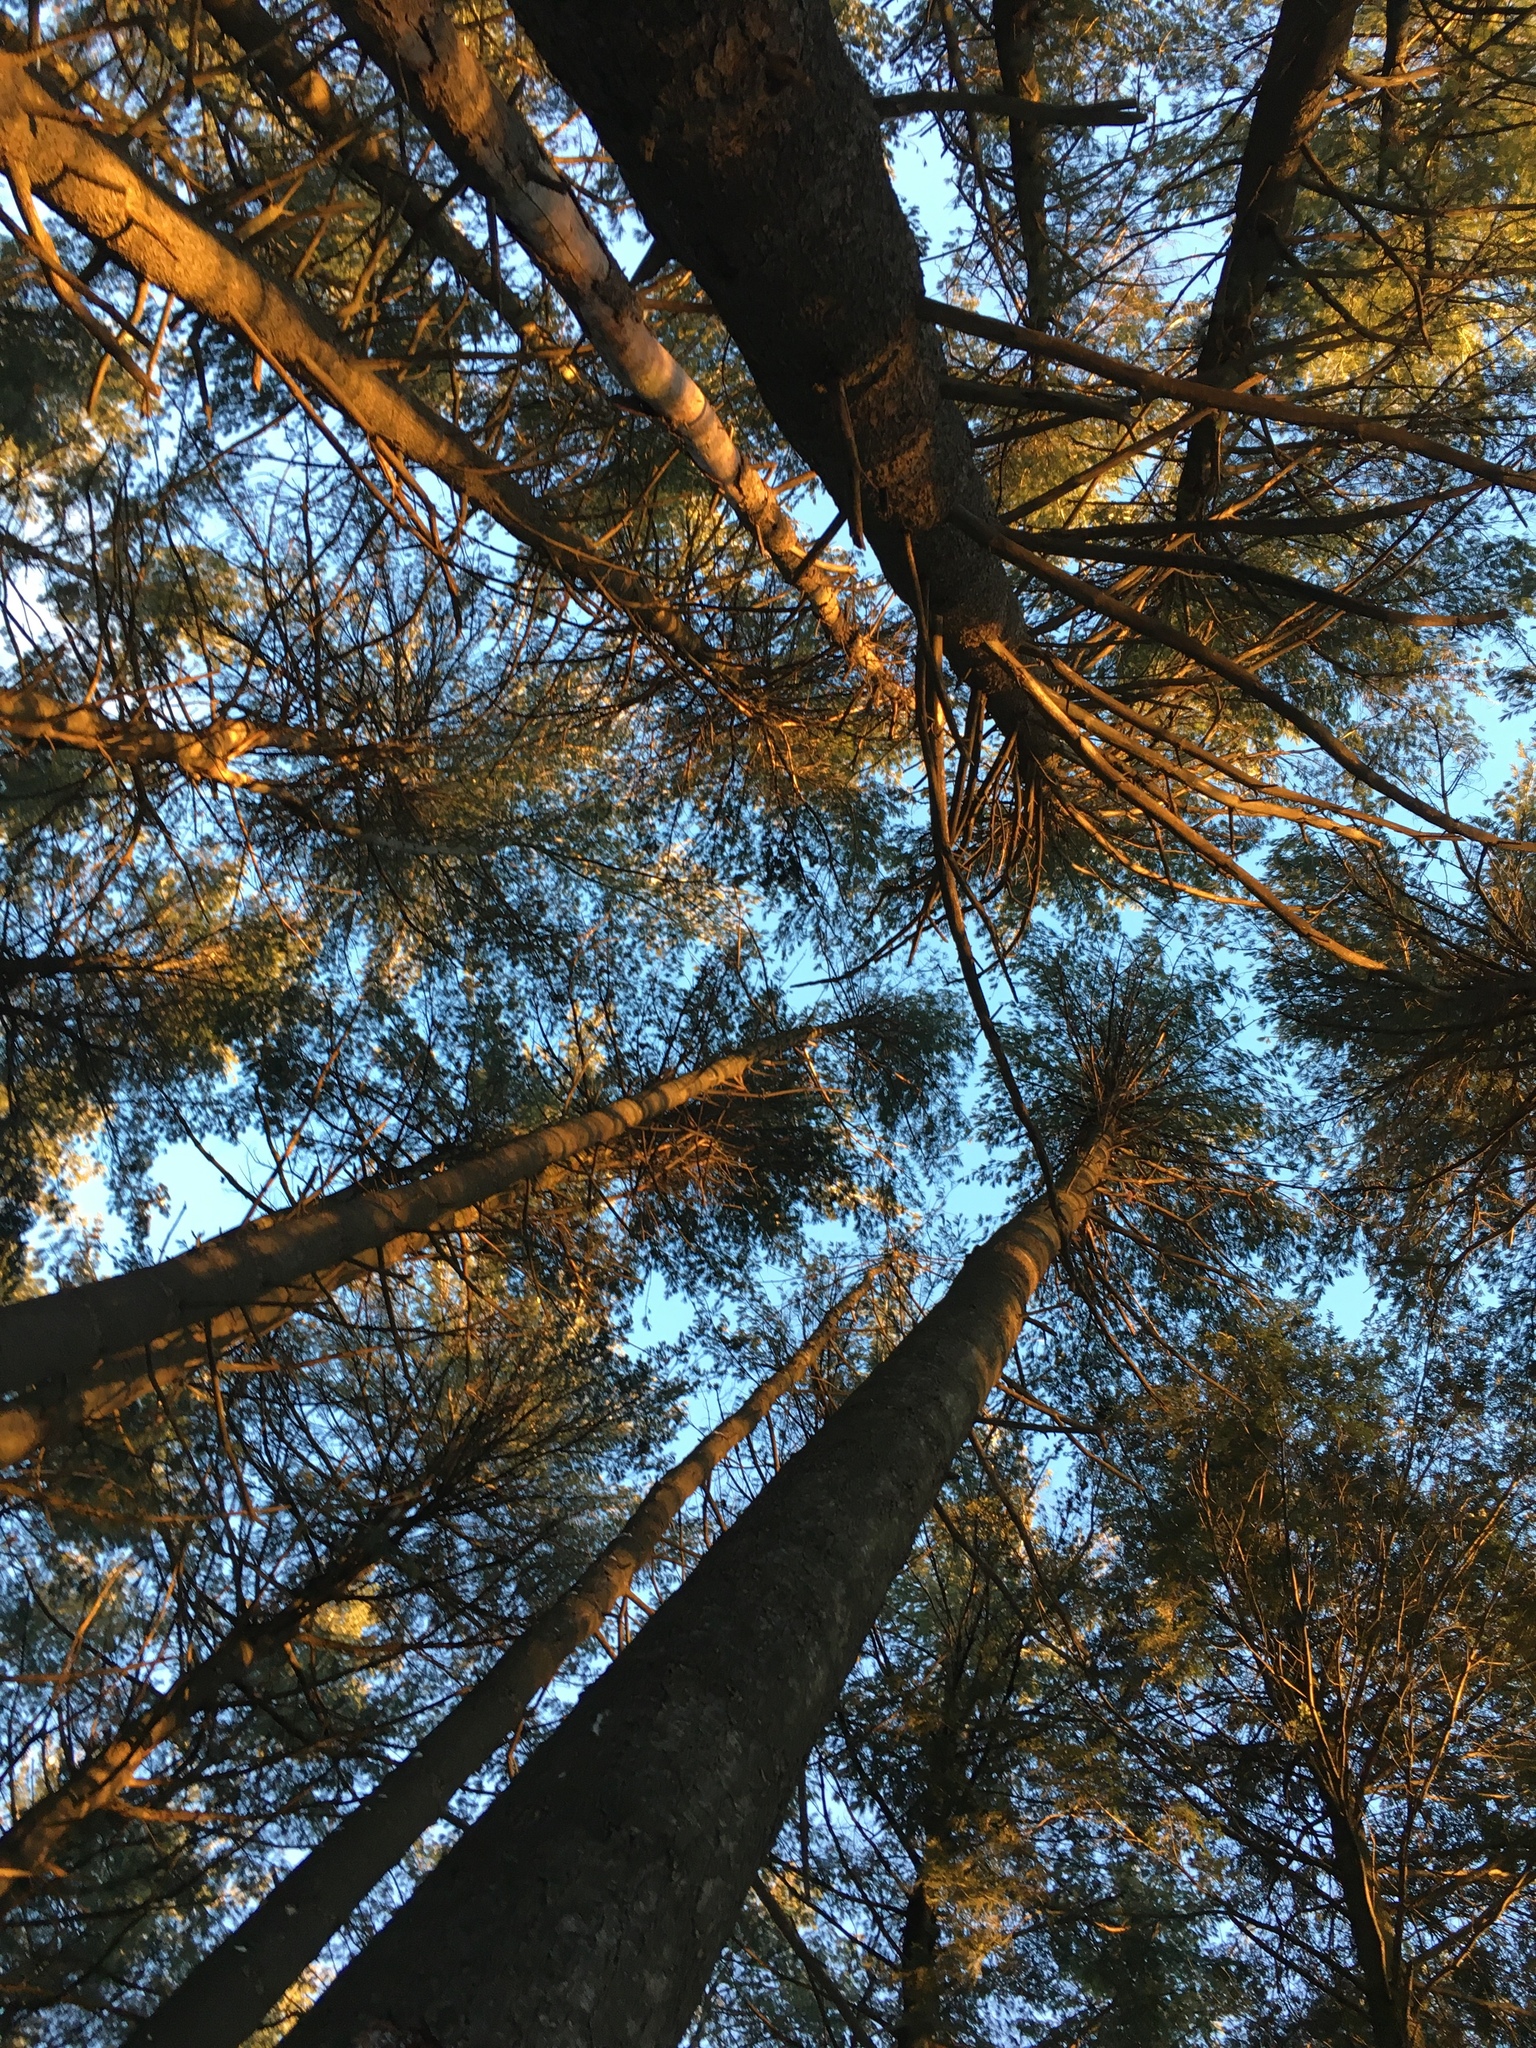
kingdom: Plantae
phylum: Tracheophyta
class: Pinopsida
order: Pinales
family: Pinaceae
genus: Pinus
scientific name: Pinus strobus
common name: Weymouth pine
